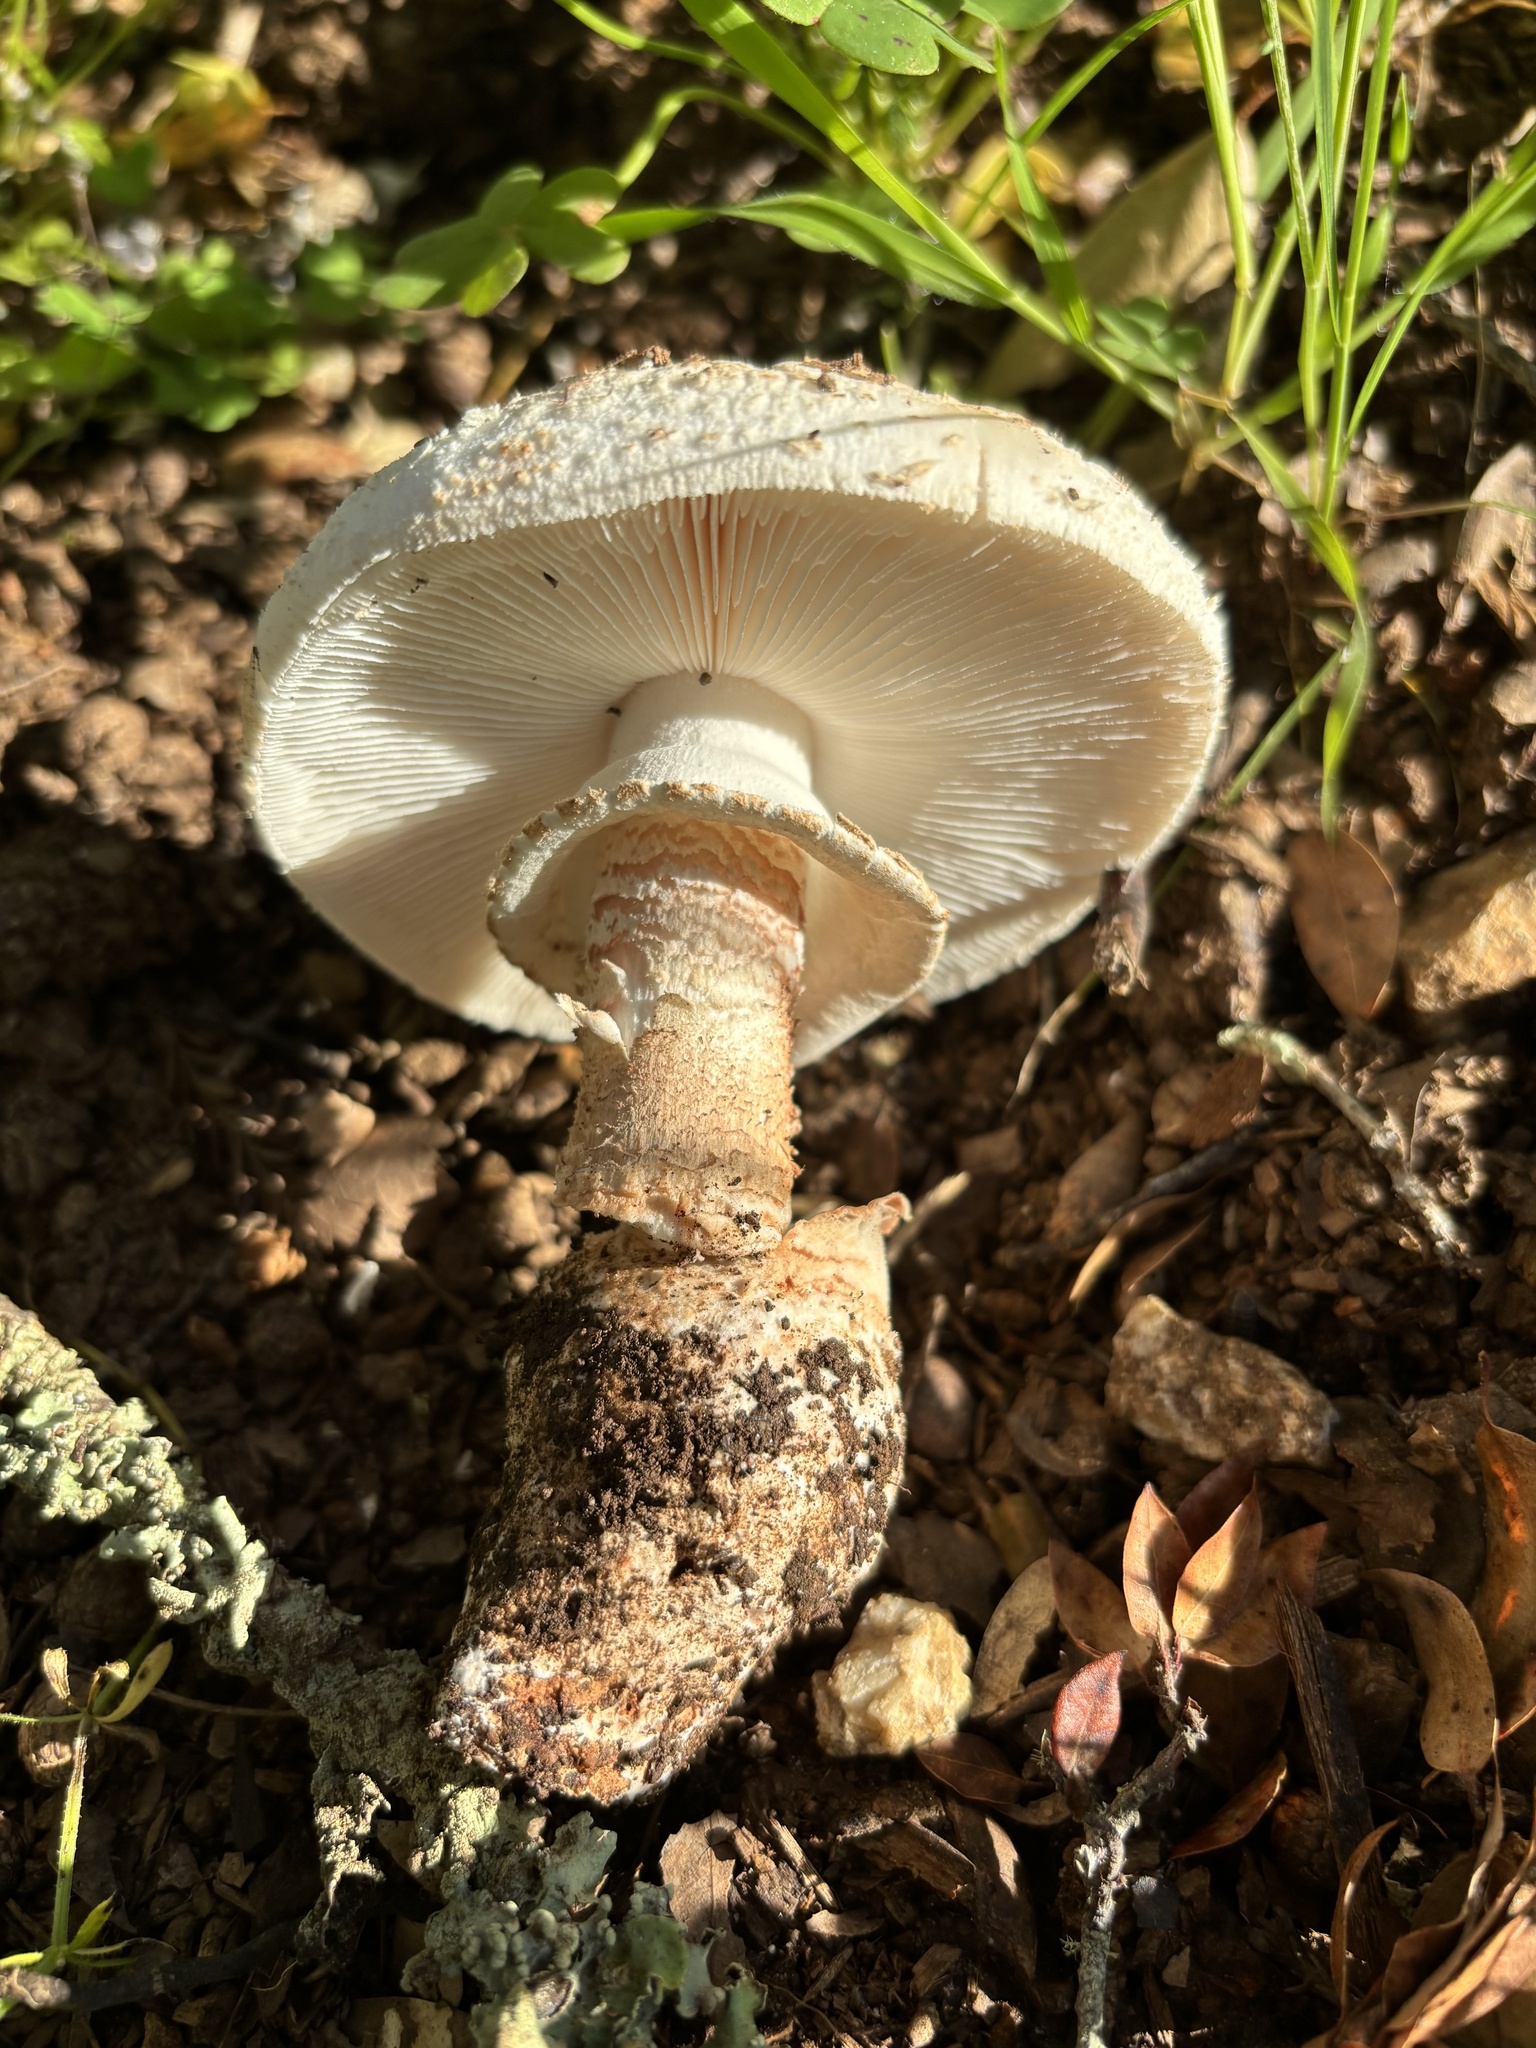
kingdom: Fungi
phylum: Basidiomycota
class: Agaricomycetes
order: Agaricales
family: Amanitaceae
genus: Amanita
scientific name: Amanita novinupta
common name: Blushing bride
